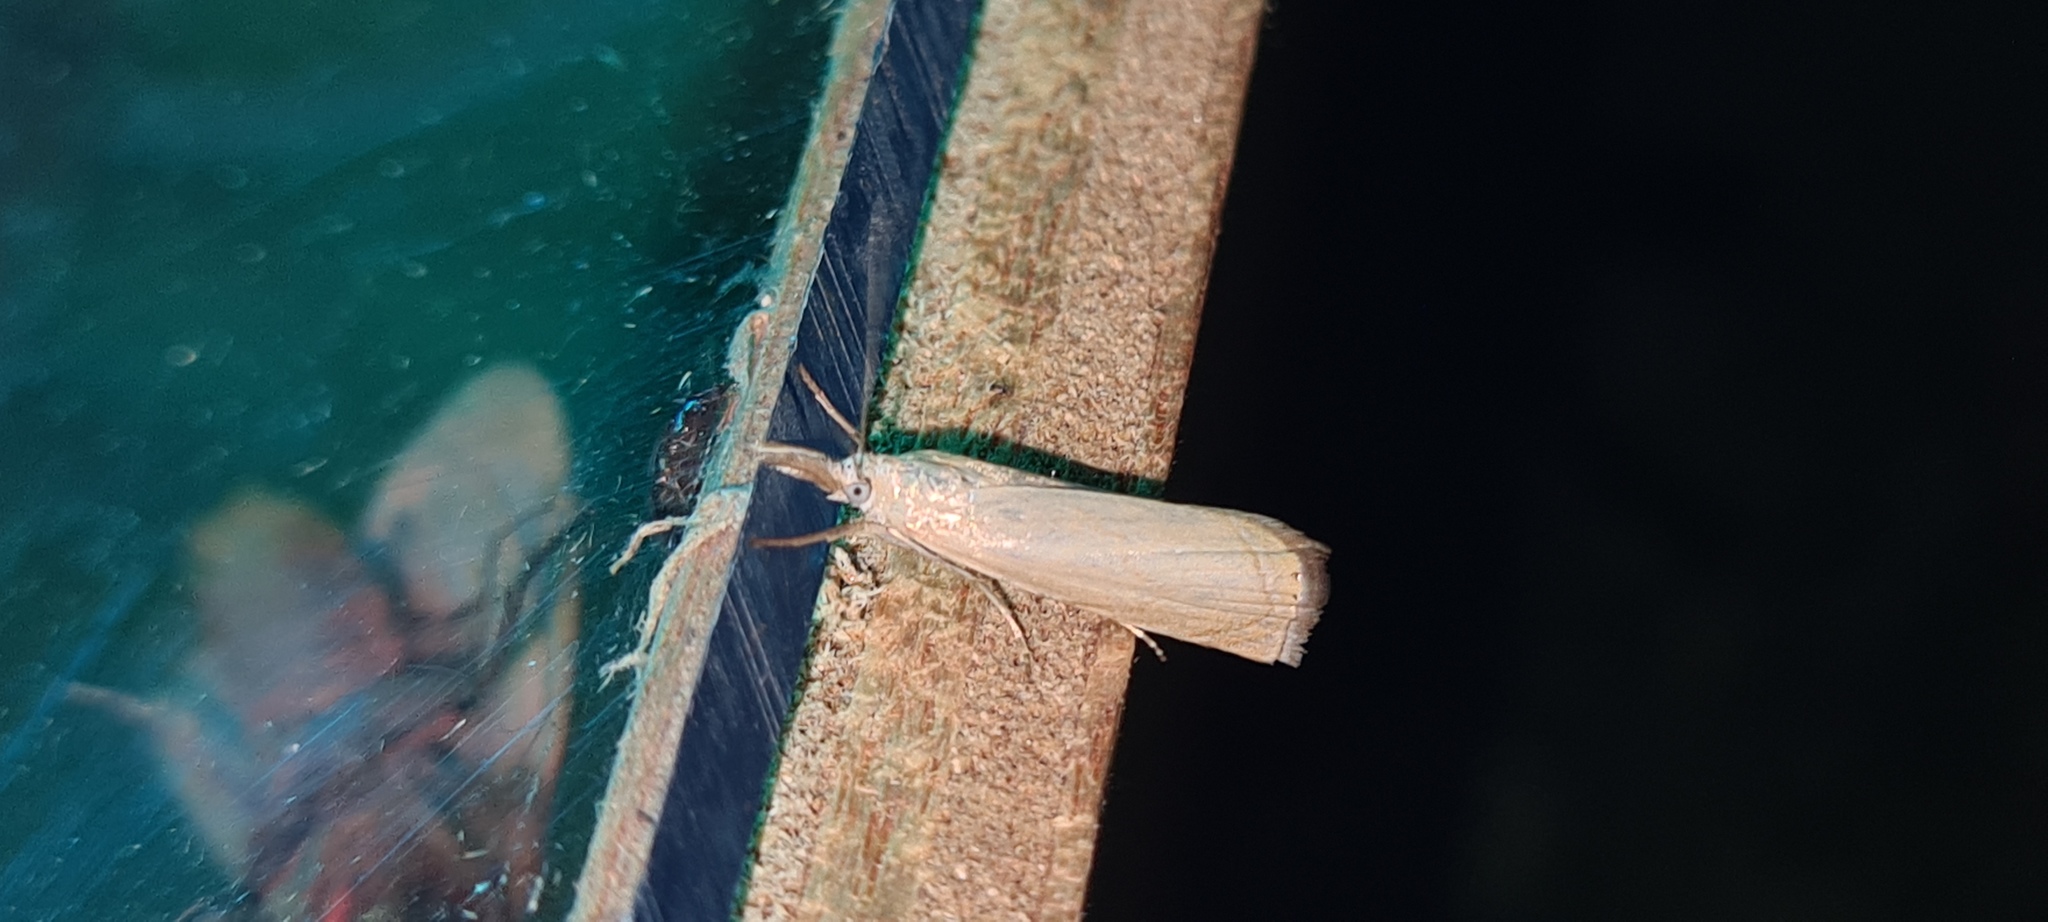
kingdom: Animalia
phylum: Arthropoda
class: Insecta
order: Lepidoptera
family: Crambidae
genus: Chrysoteuchia
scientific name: Chrysoteuchia culmella
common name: Garden grass-veneer
